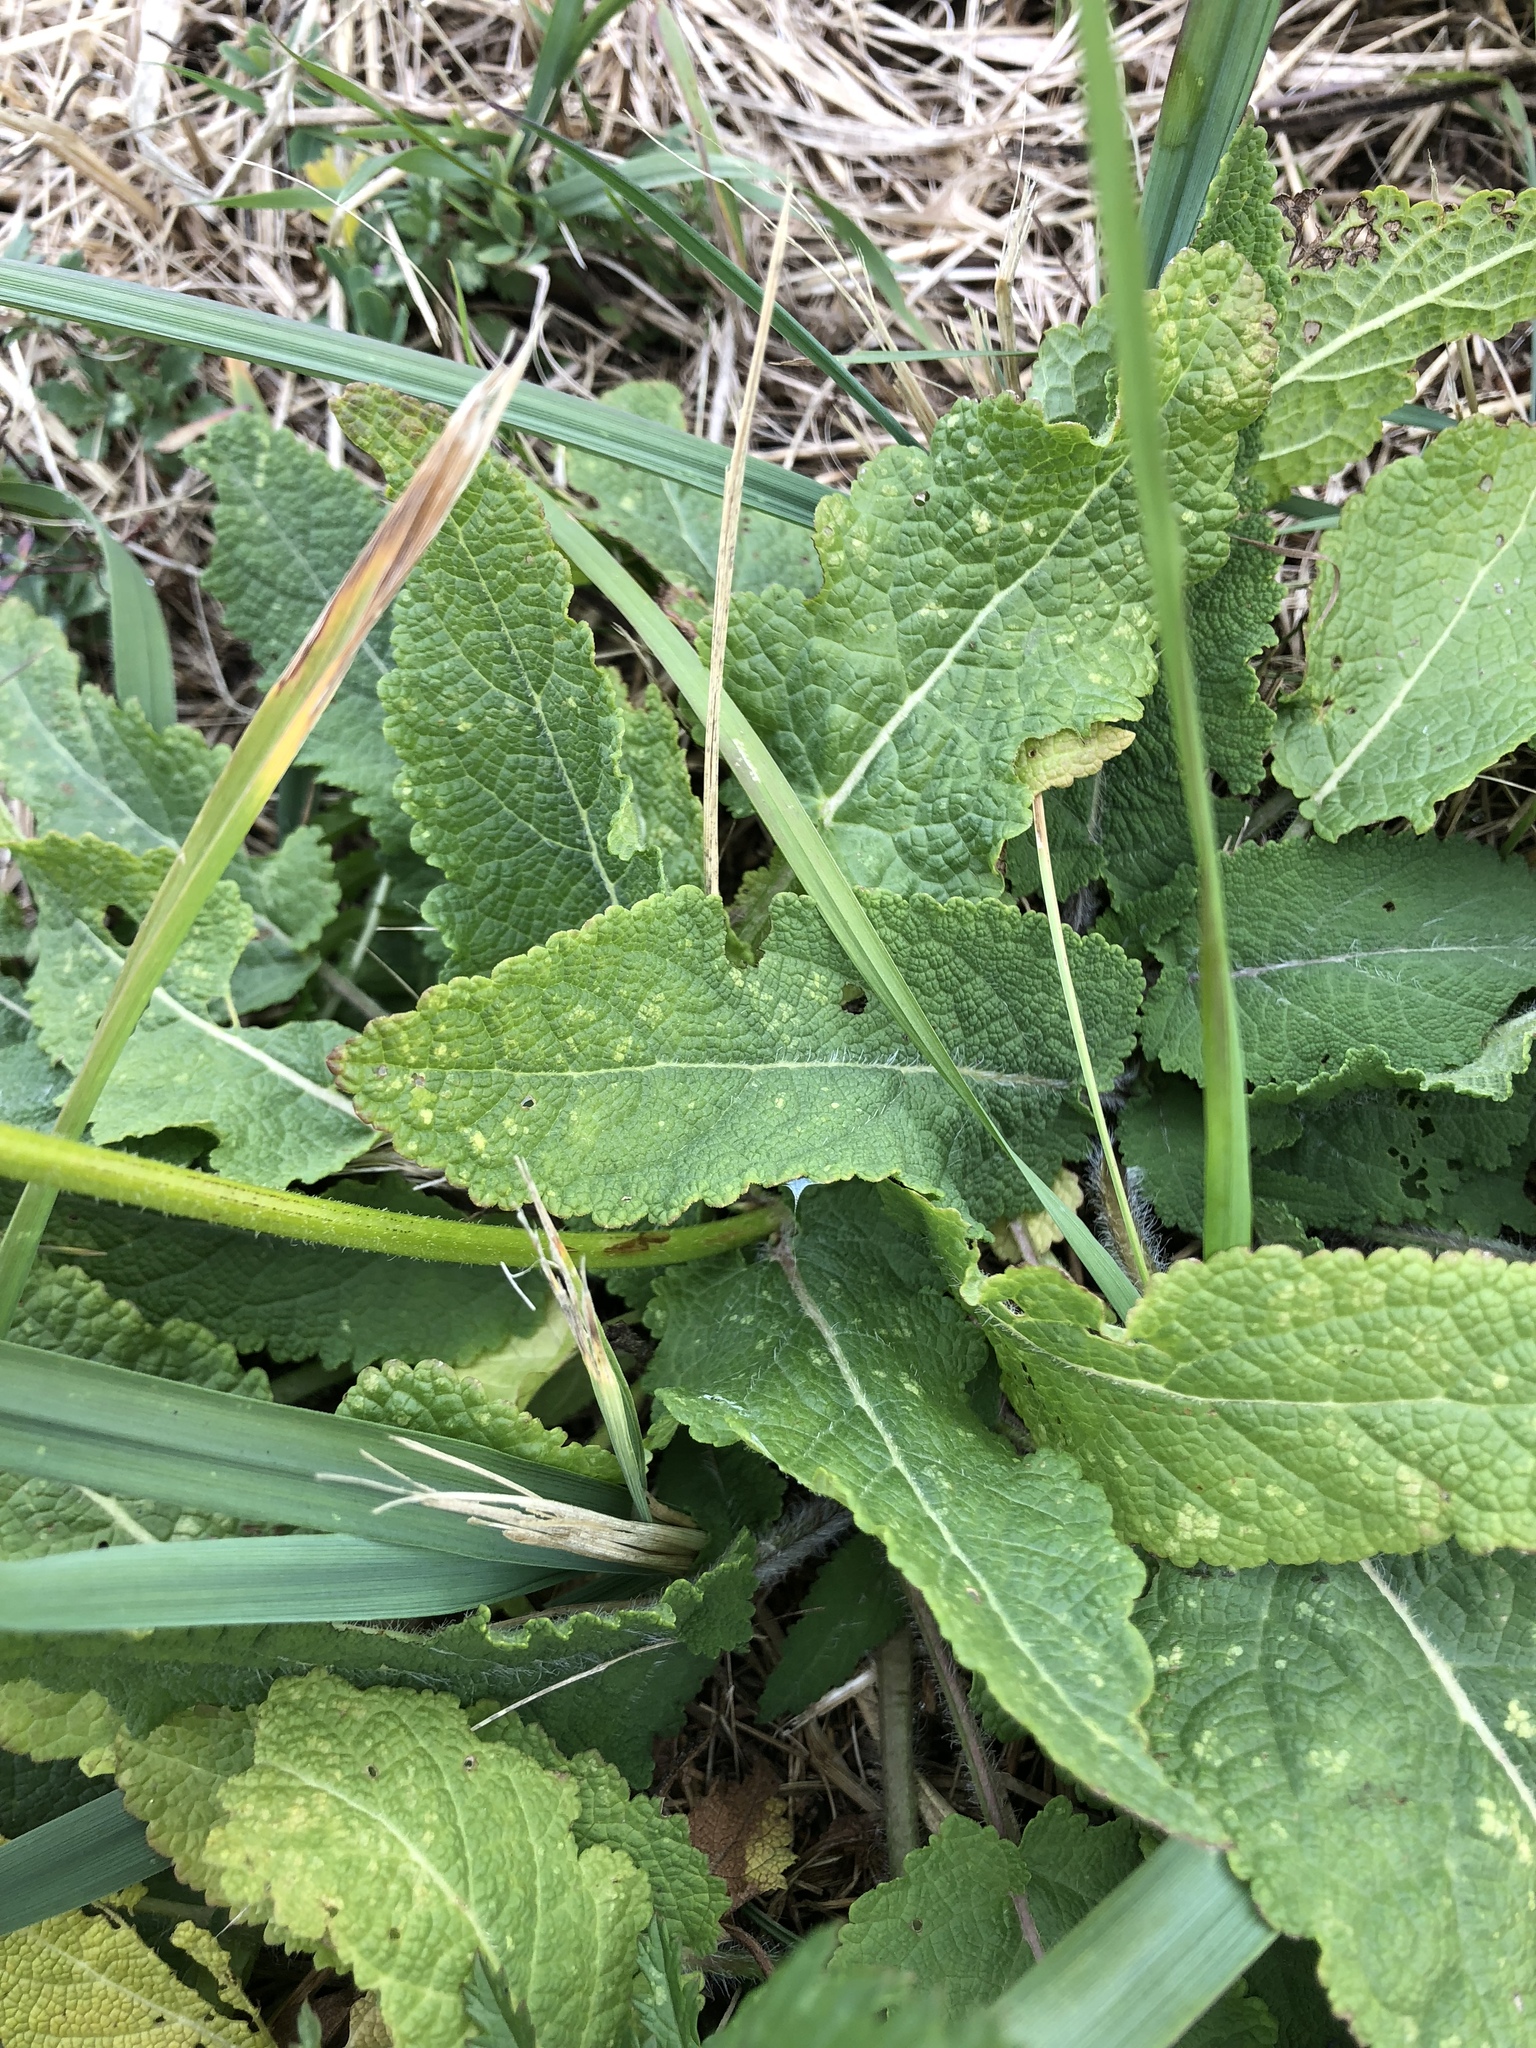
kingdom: Plantae
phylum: Tracheophyta
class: Magnoliopsida
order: Lamiales
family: Lamiaceae
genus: Salvia
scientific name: Salvia pratensis
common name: Meadow sage
